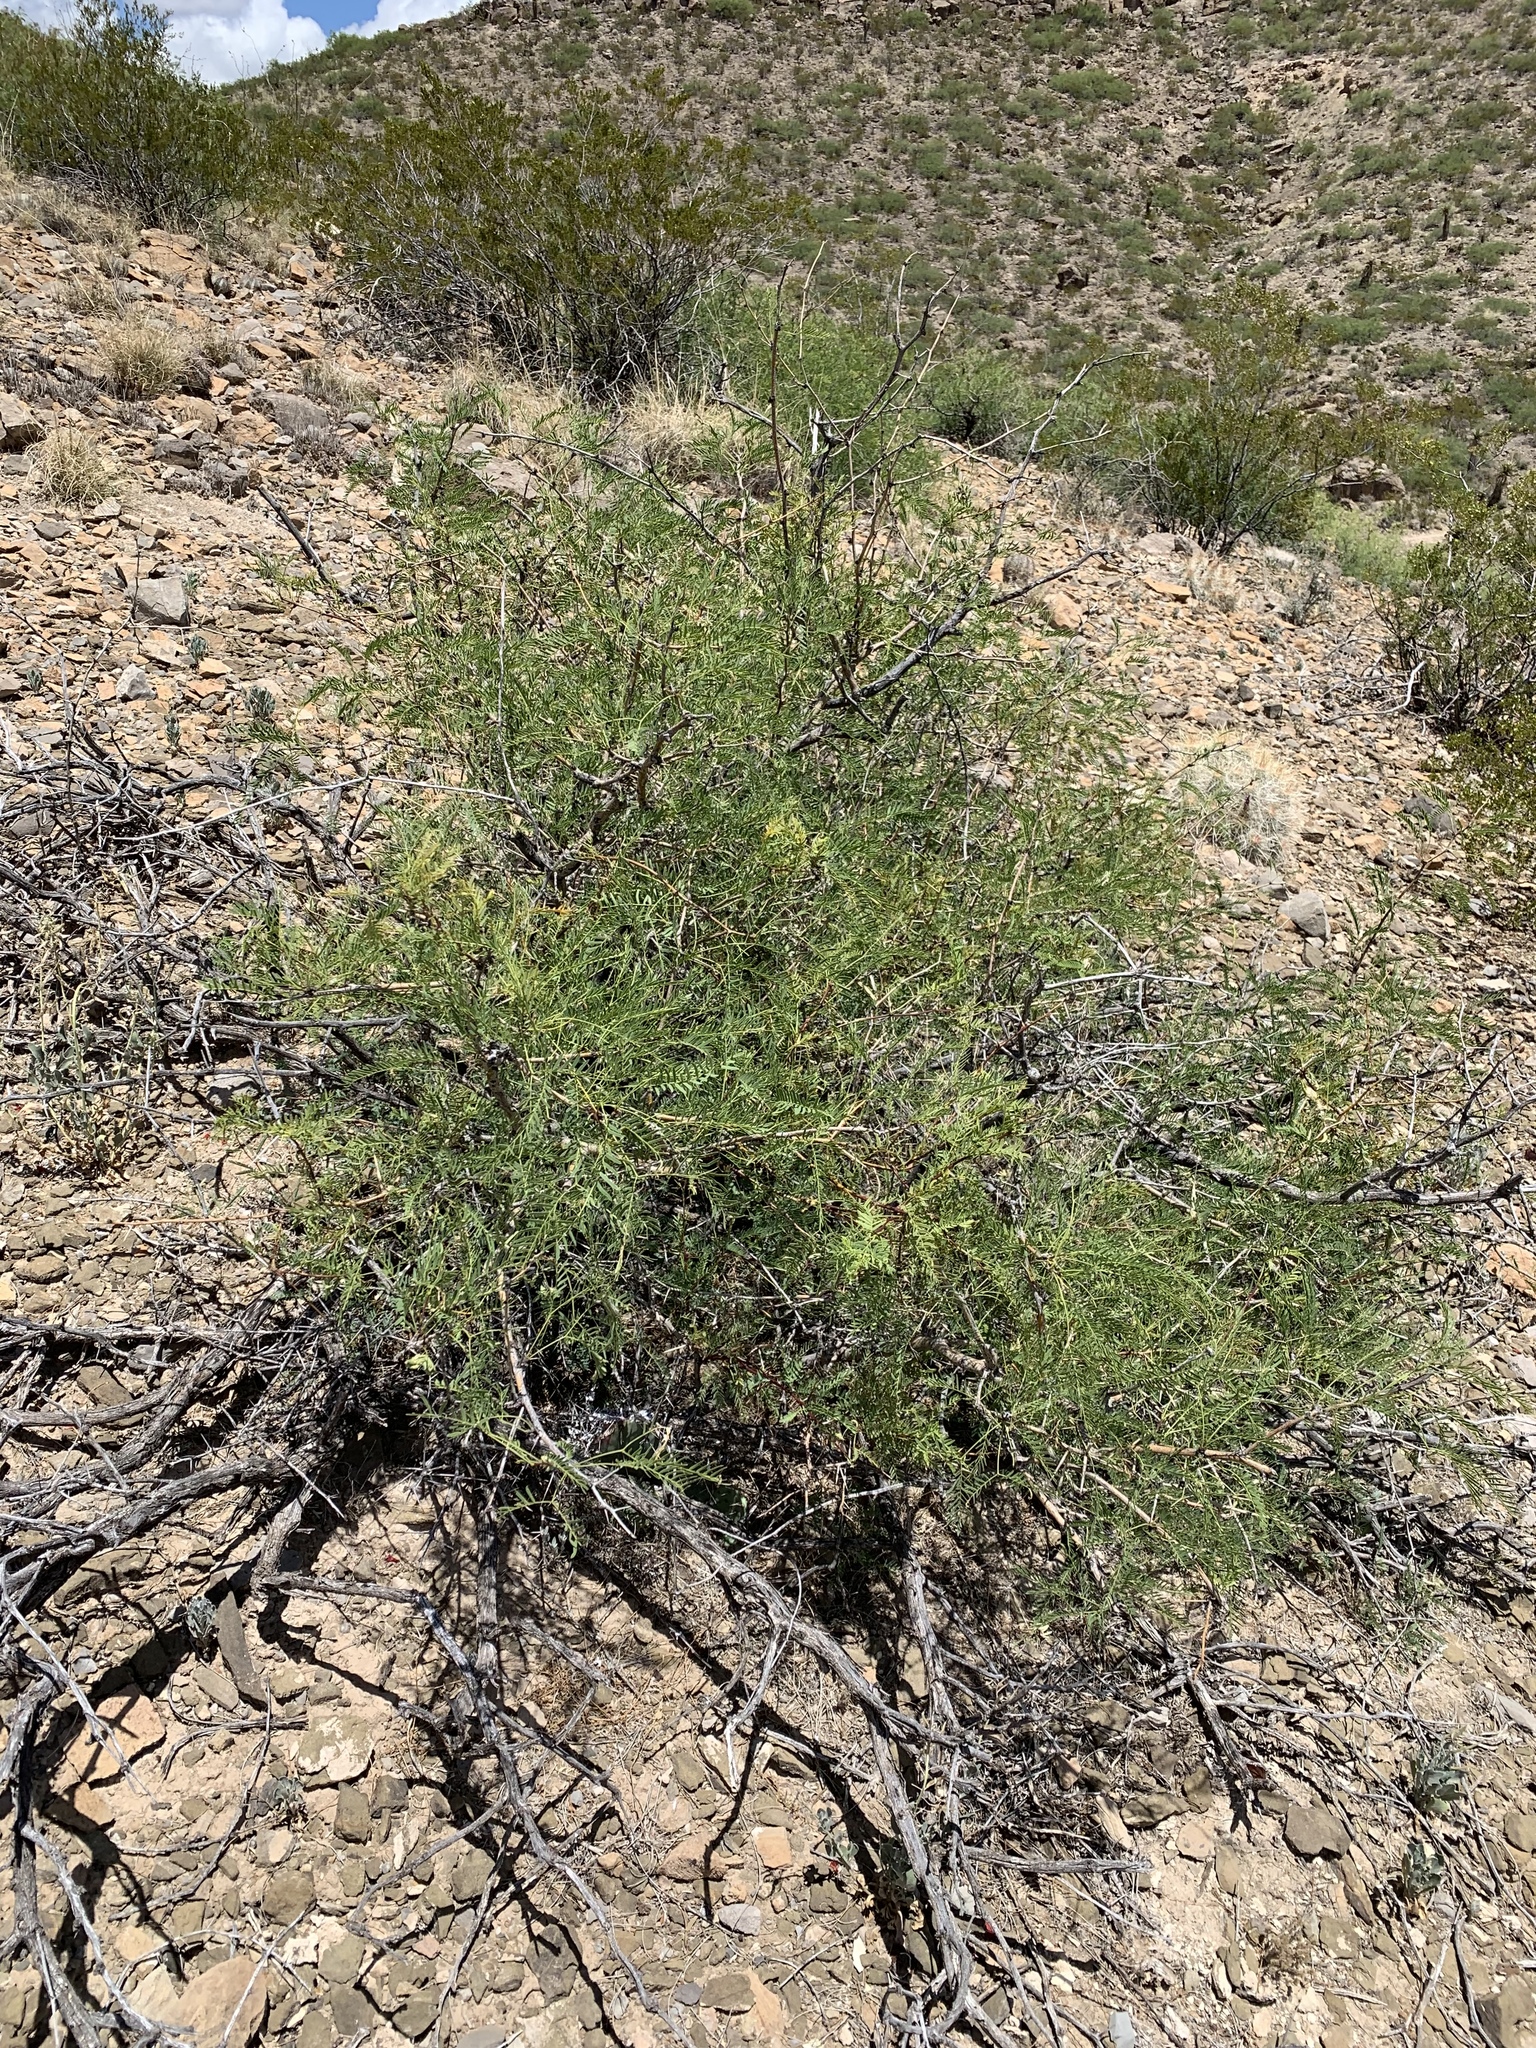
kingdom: Plantae
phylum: Tracheophyta
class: Magnoliopsida
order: Fabales
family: Fabaceae
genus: Prosopis
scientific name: Prosopis glandulosa
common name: Honey mesquite
